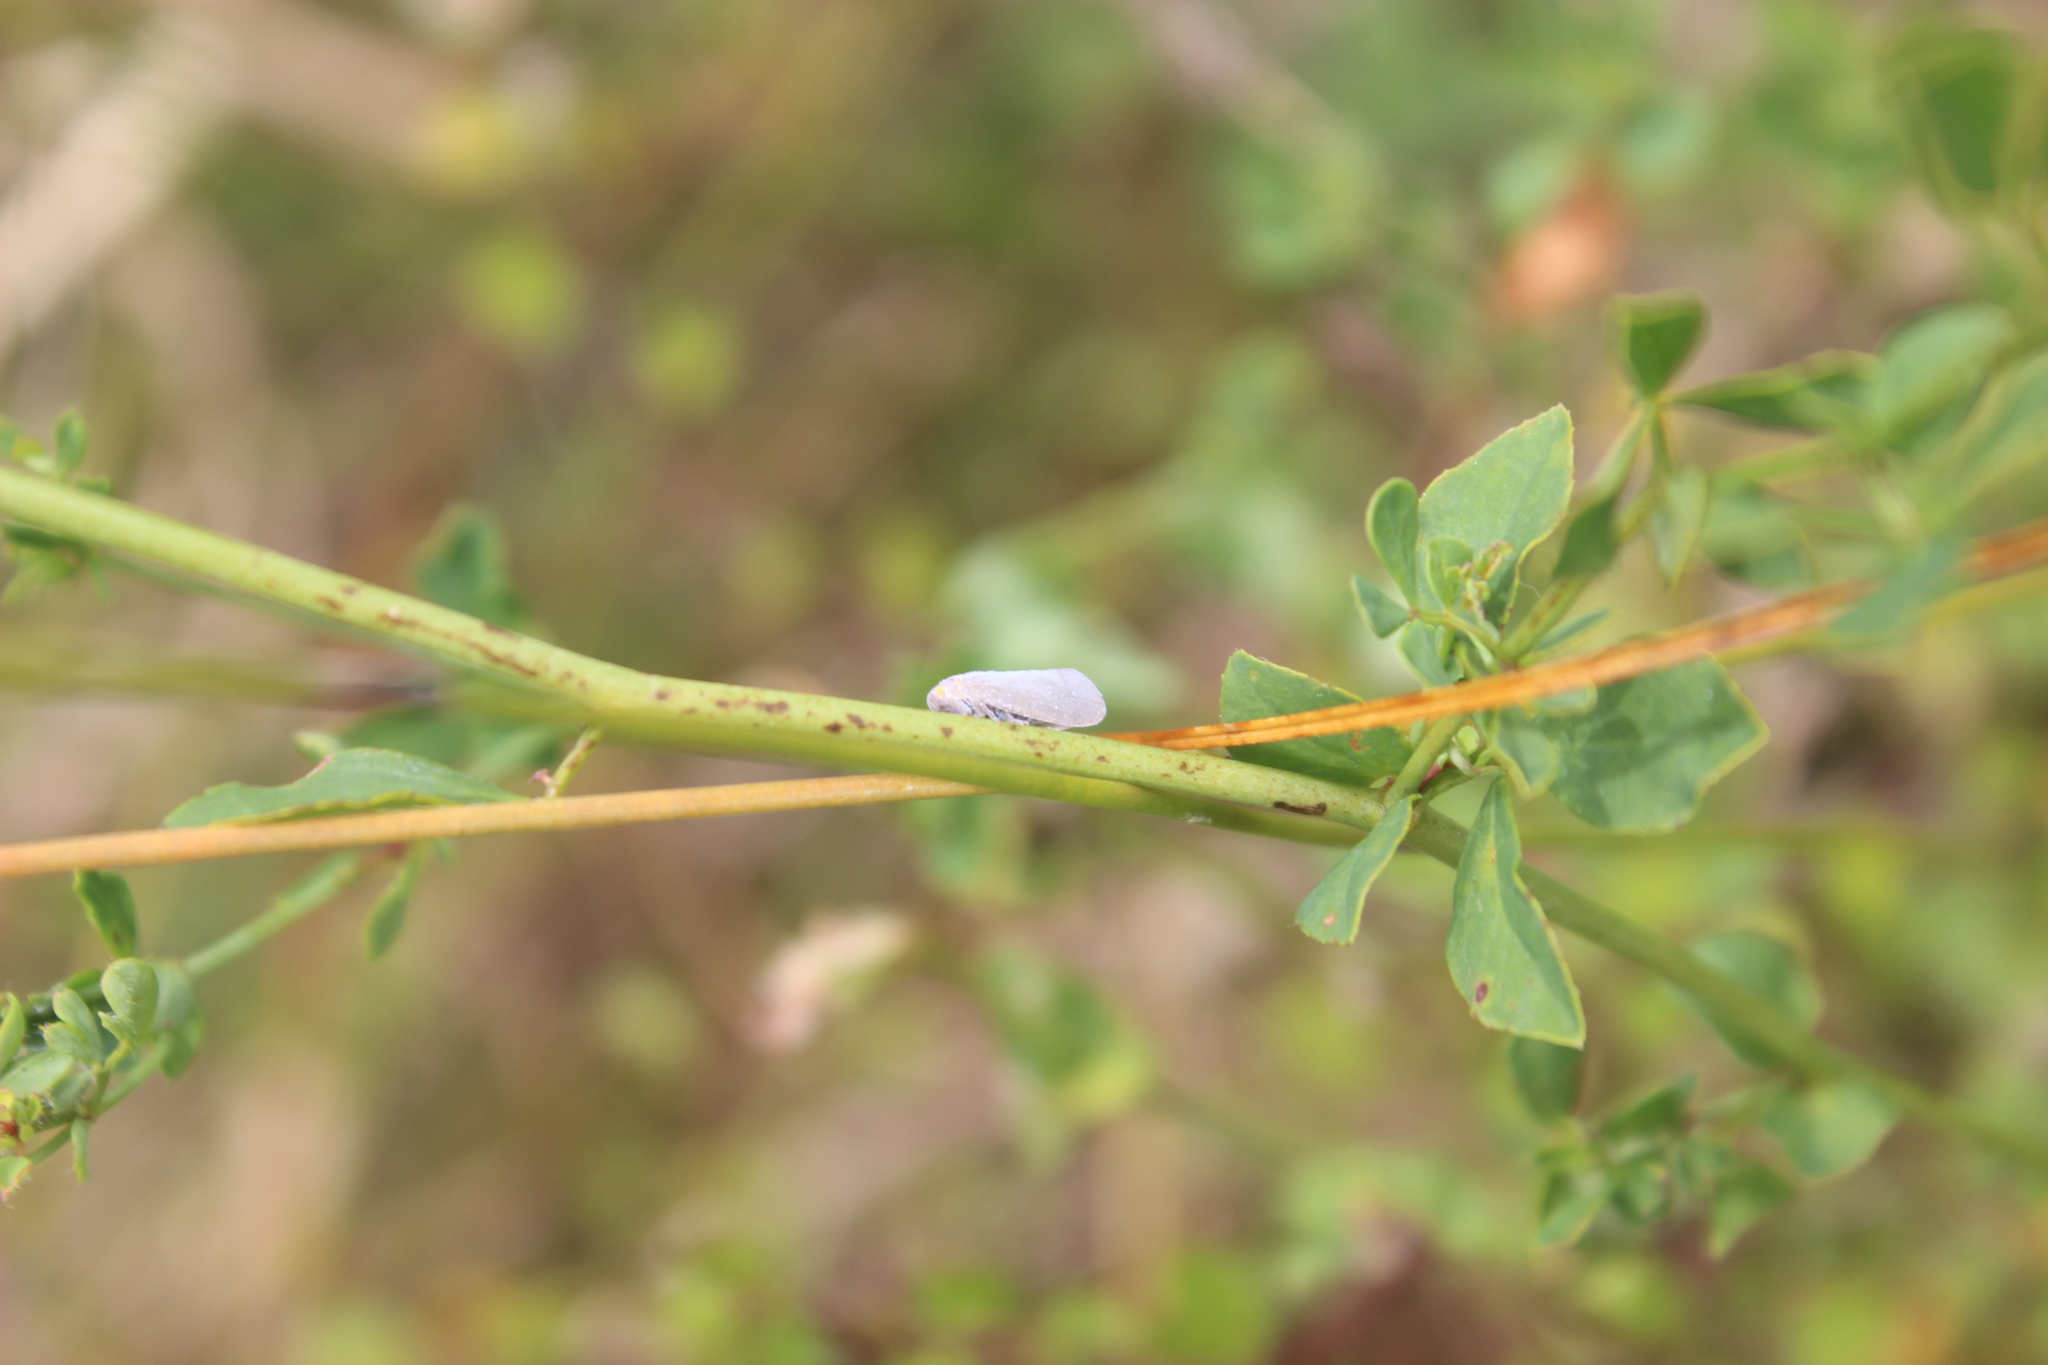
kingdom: Animalia
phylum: Arthropoda
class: Insecta
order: Hemiptera
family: Flatidae
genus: Anzora
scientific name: Anzora unicolor
